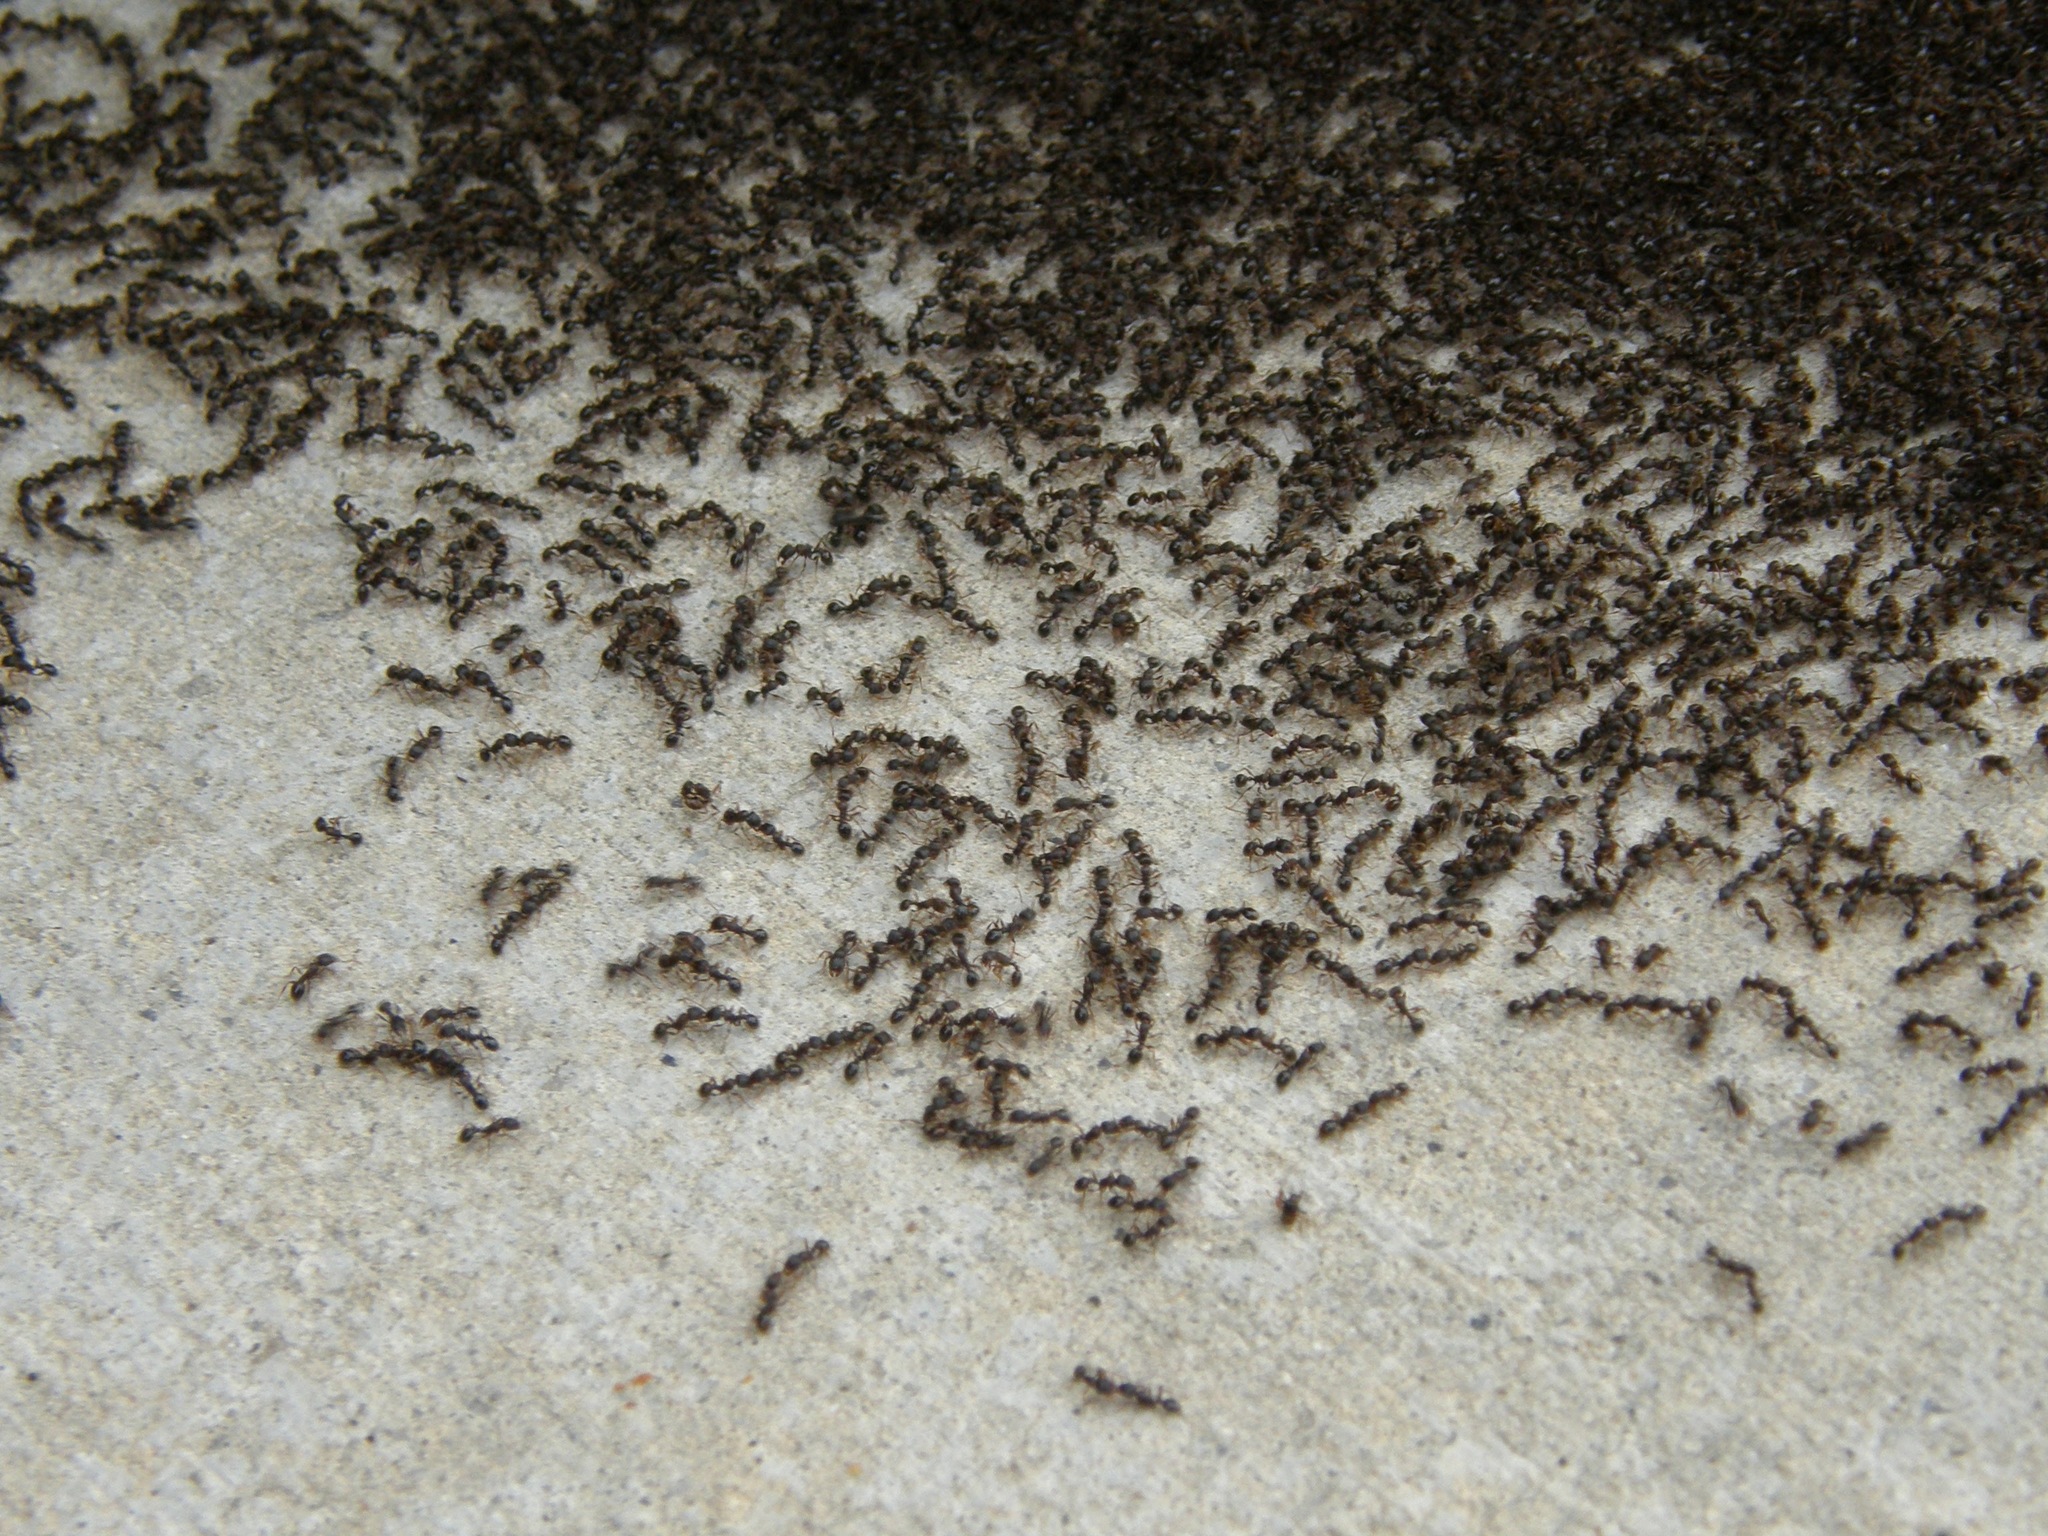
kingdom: Animalia
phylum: Arthropoda
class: Insecta
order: Hymenoptera
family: Formicidae
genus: Tetramorium
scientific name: Tetramorium immigrans
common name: Pavement ant
